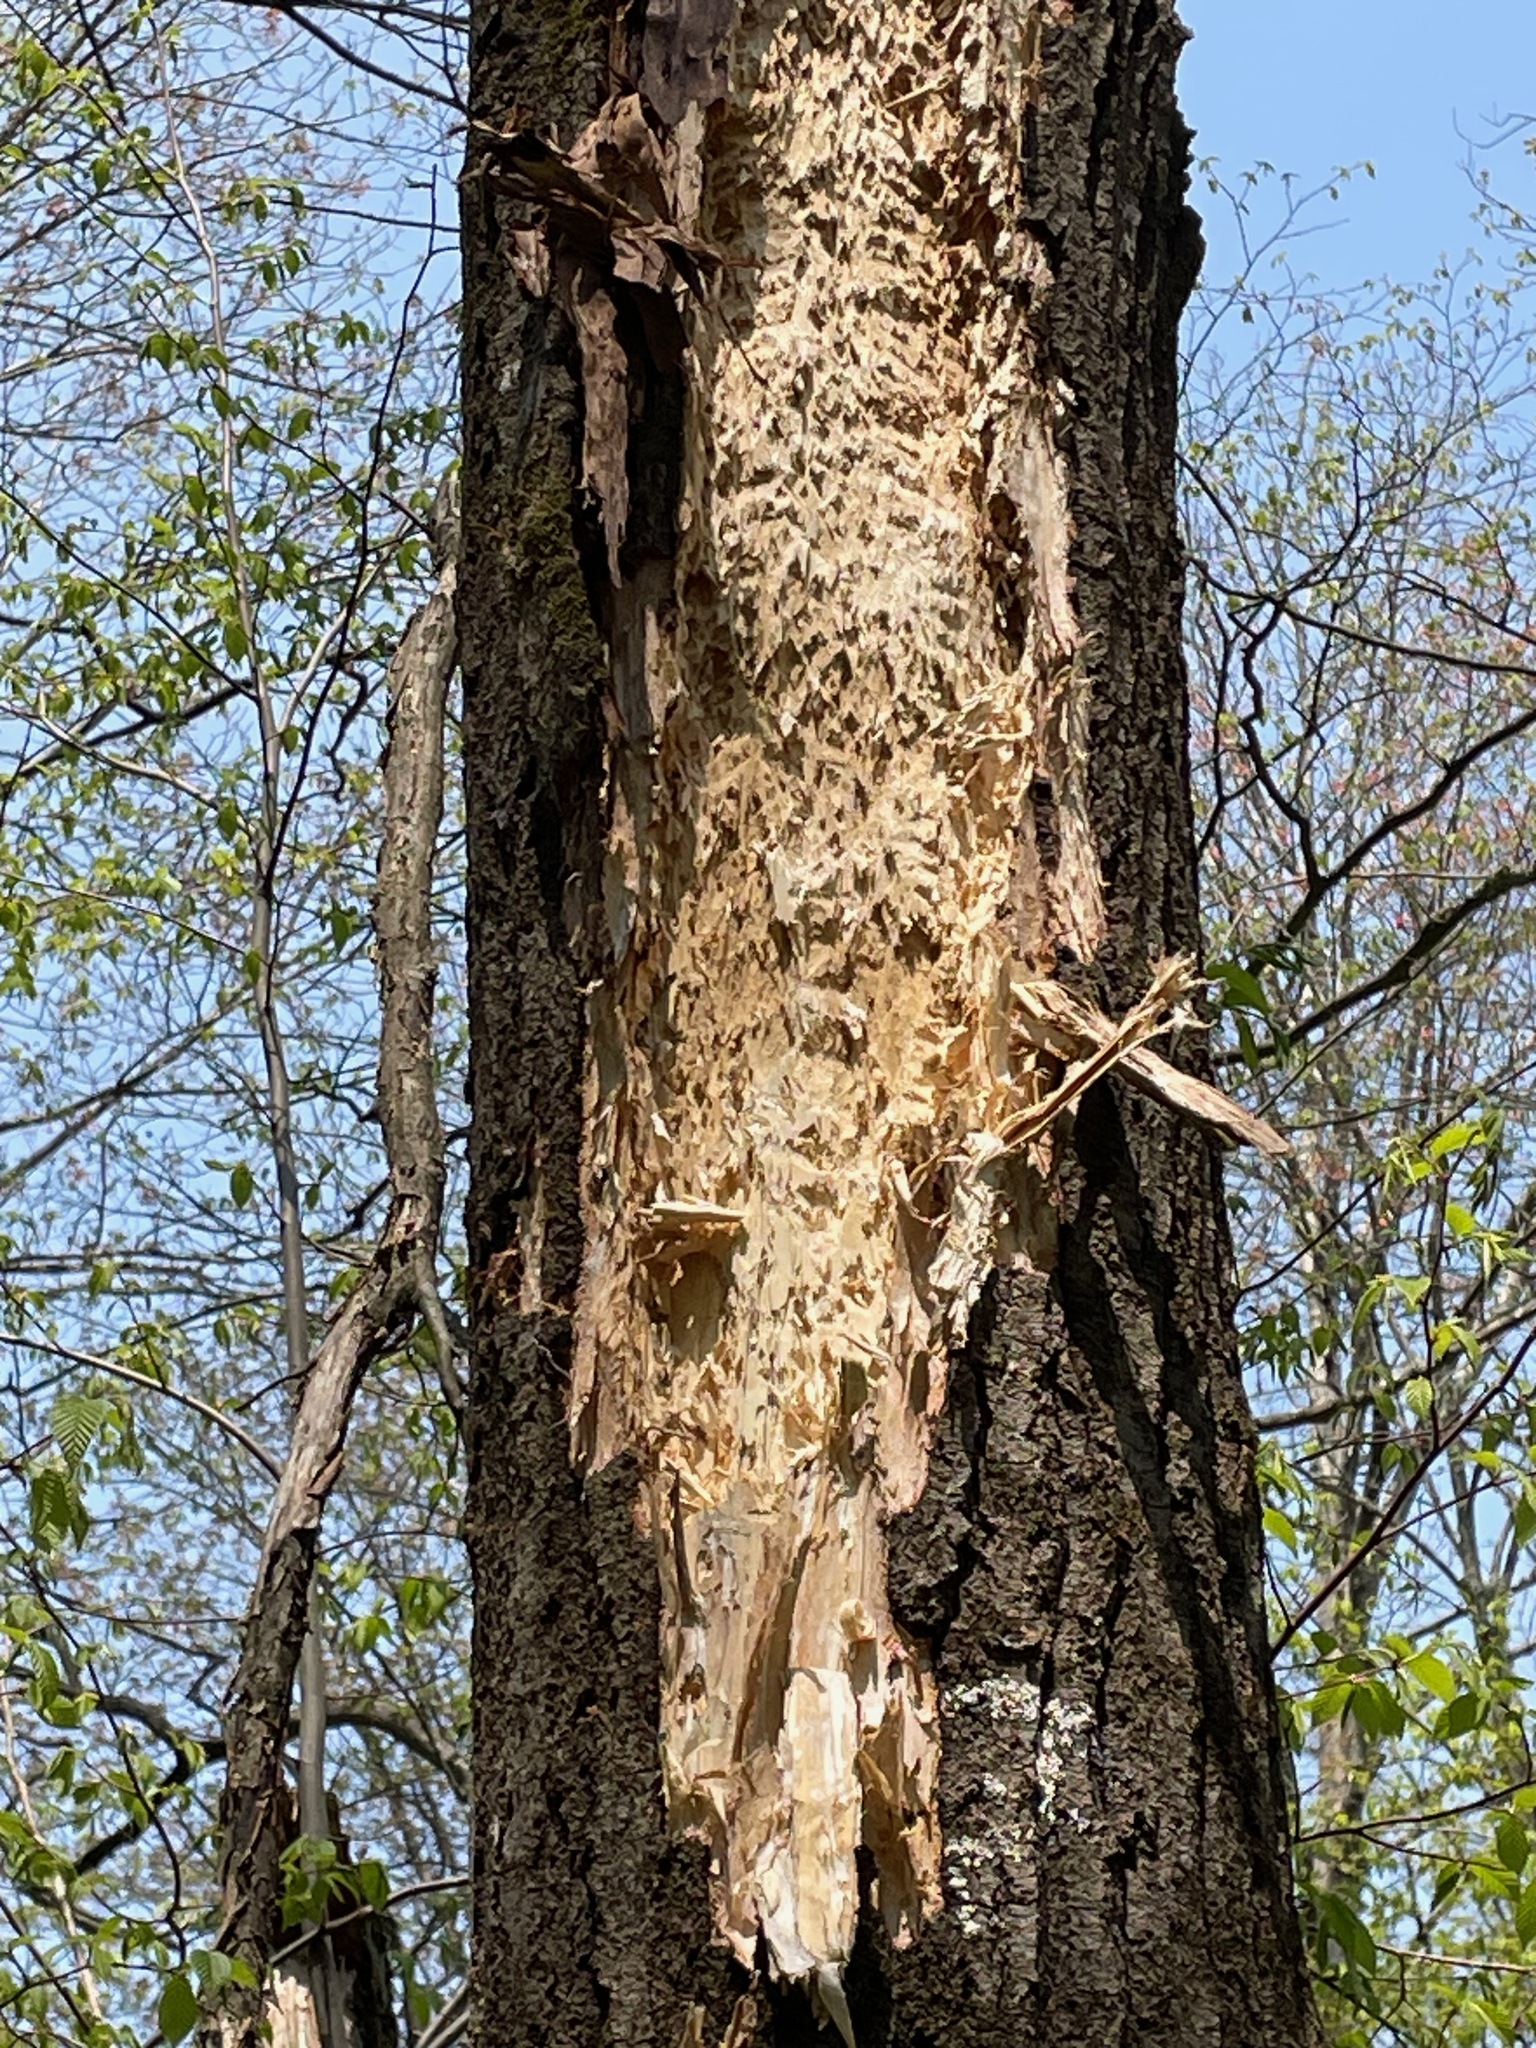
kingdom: Animalia
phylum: Chordata
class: Aves
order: Piciformes
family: Picidae
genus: Dryocopus
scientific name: Dryocopus pileatus
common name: Pileated woodpecker
